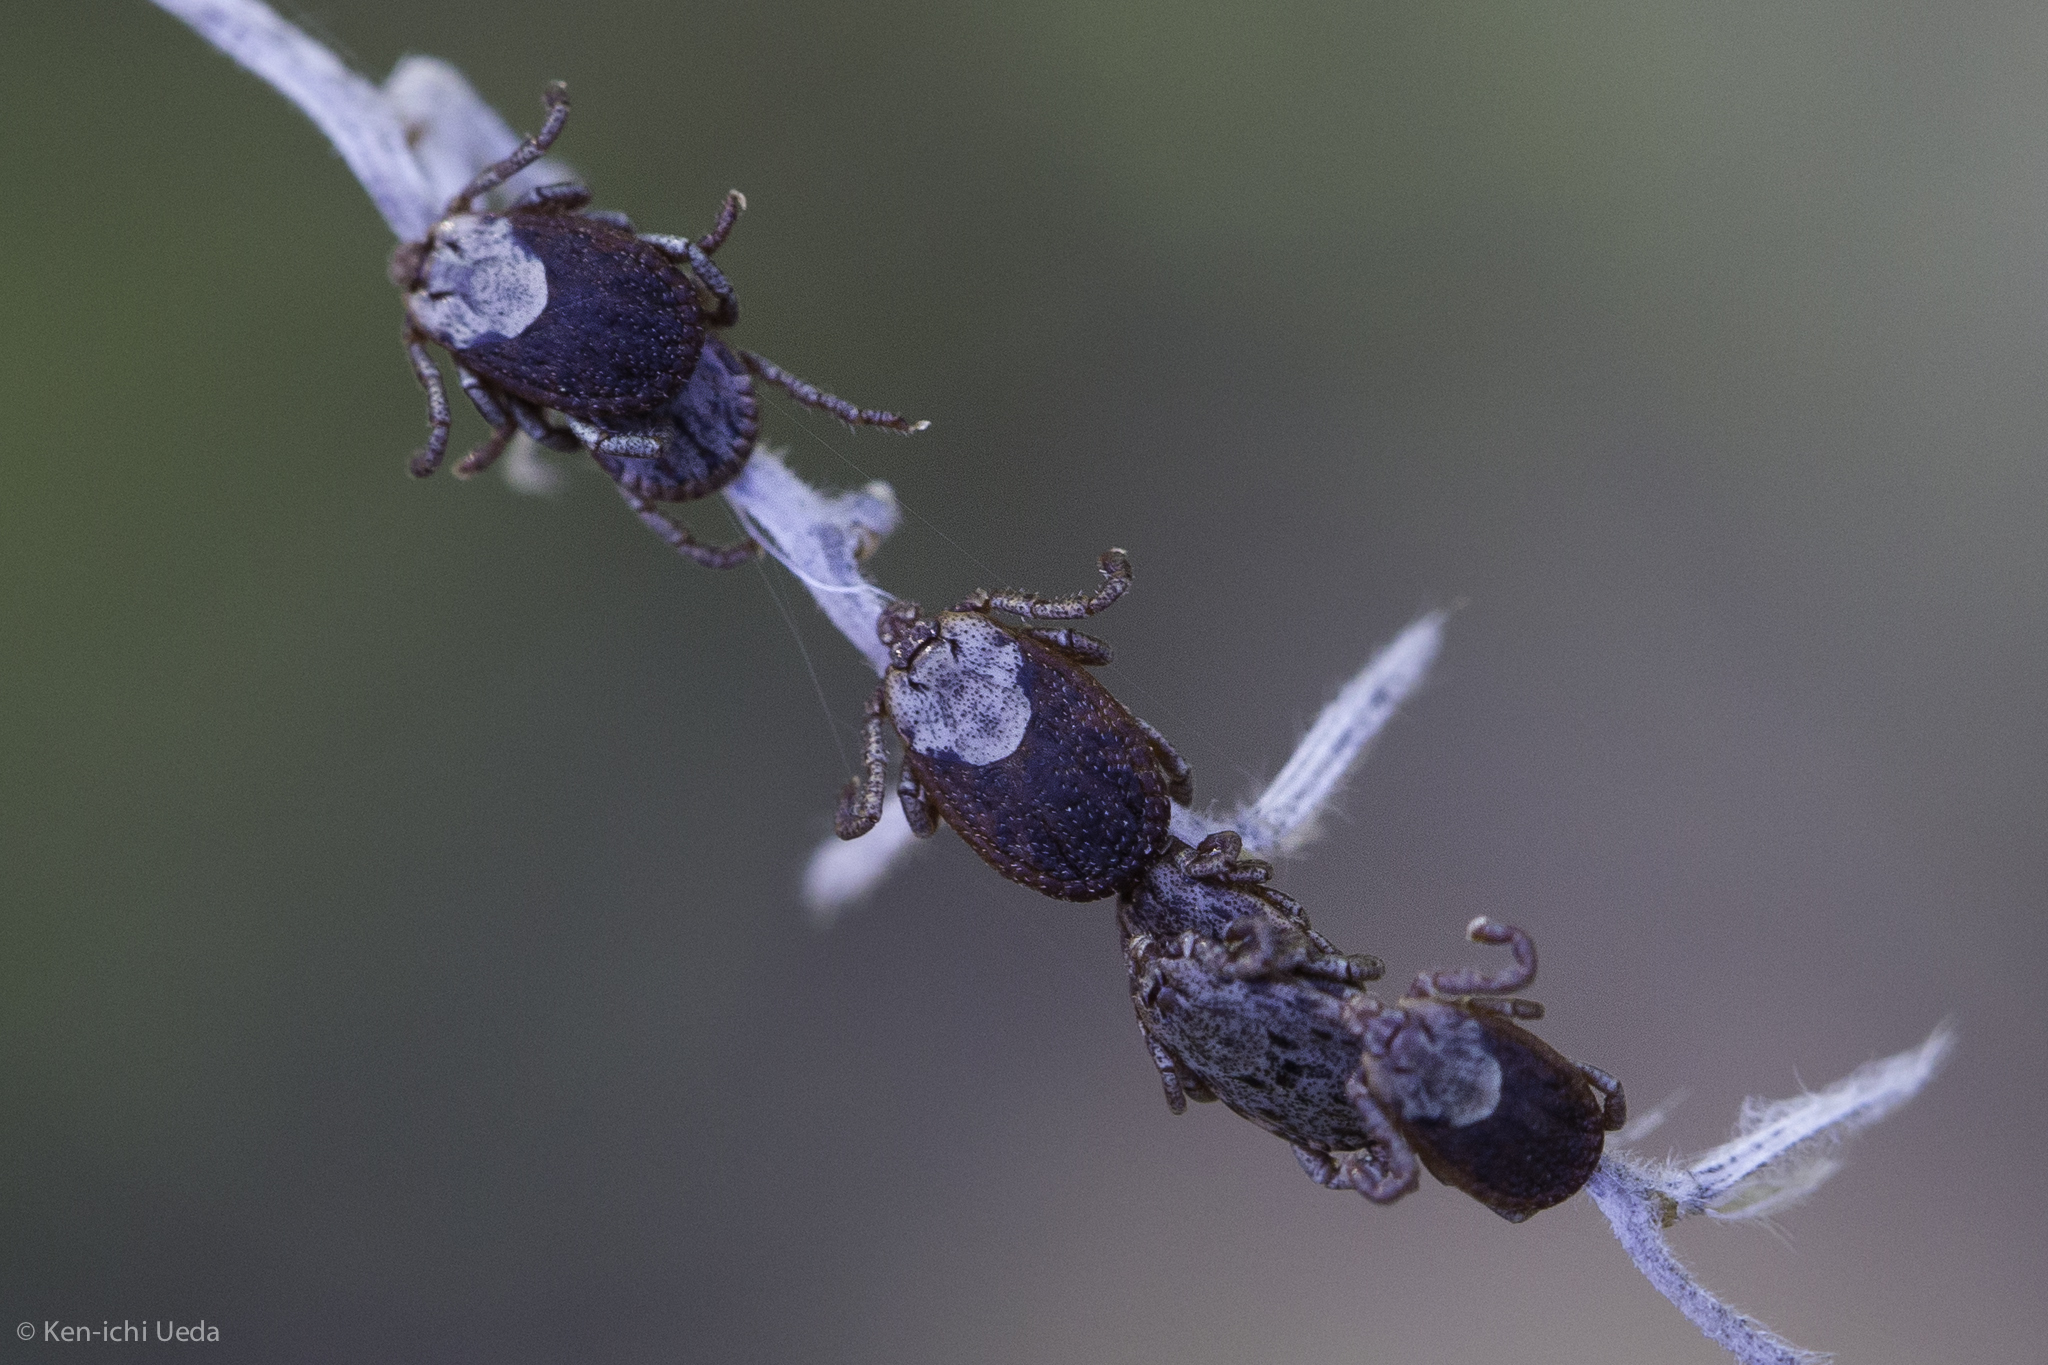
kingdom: Animalia
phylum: Arthropoda
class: Arachnida
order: Ixodida
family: Ixodidae
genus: Dermacentor
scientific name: Dermacentor occidentalis
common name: Net tick
